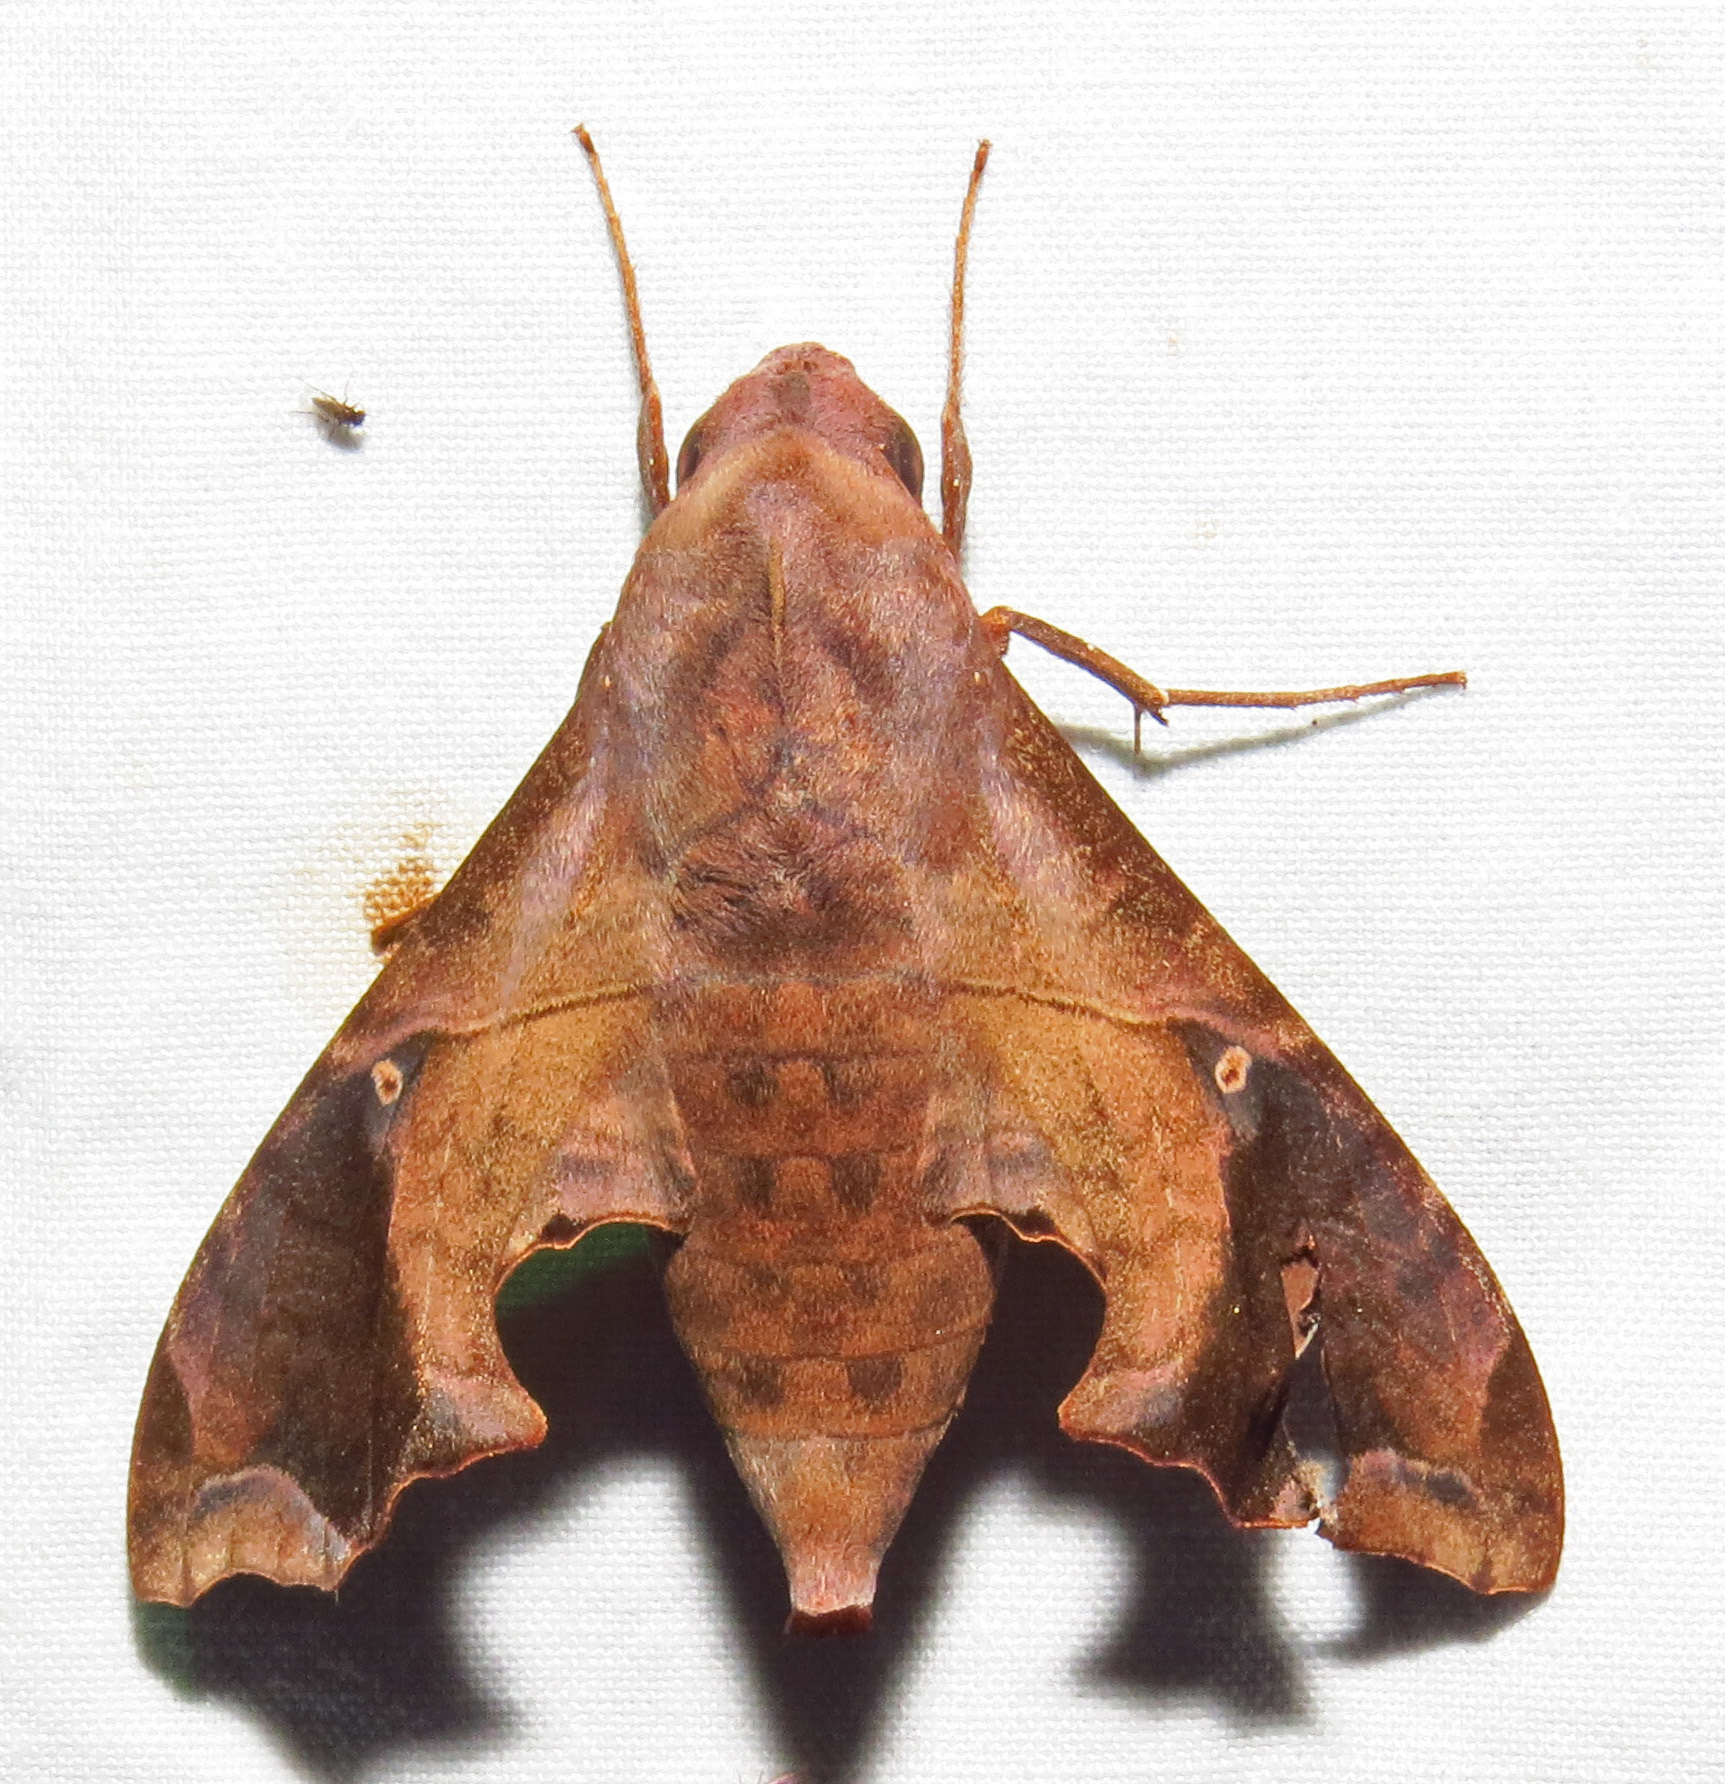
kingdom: Animalia
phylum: Arthropoda
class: Insecta
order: Lepidoptera
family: Sphingidae
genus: Enyo
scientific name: Enyo lugubris
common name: Mournful sphinx
